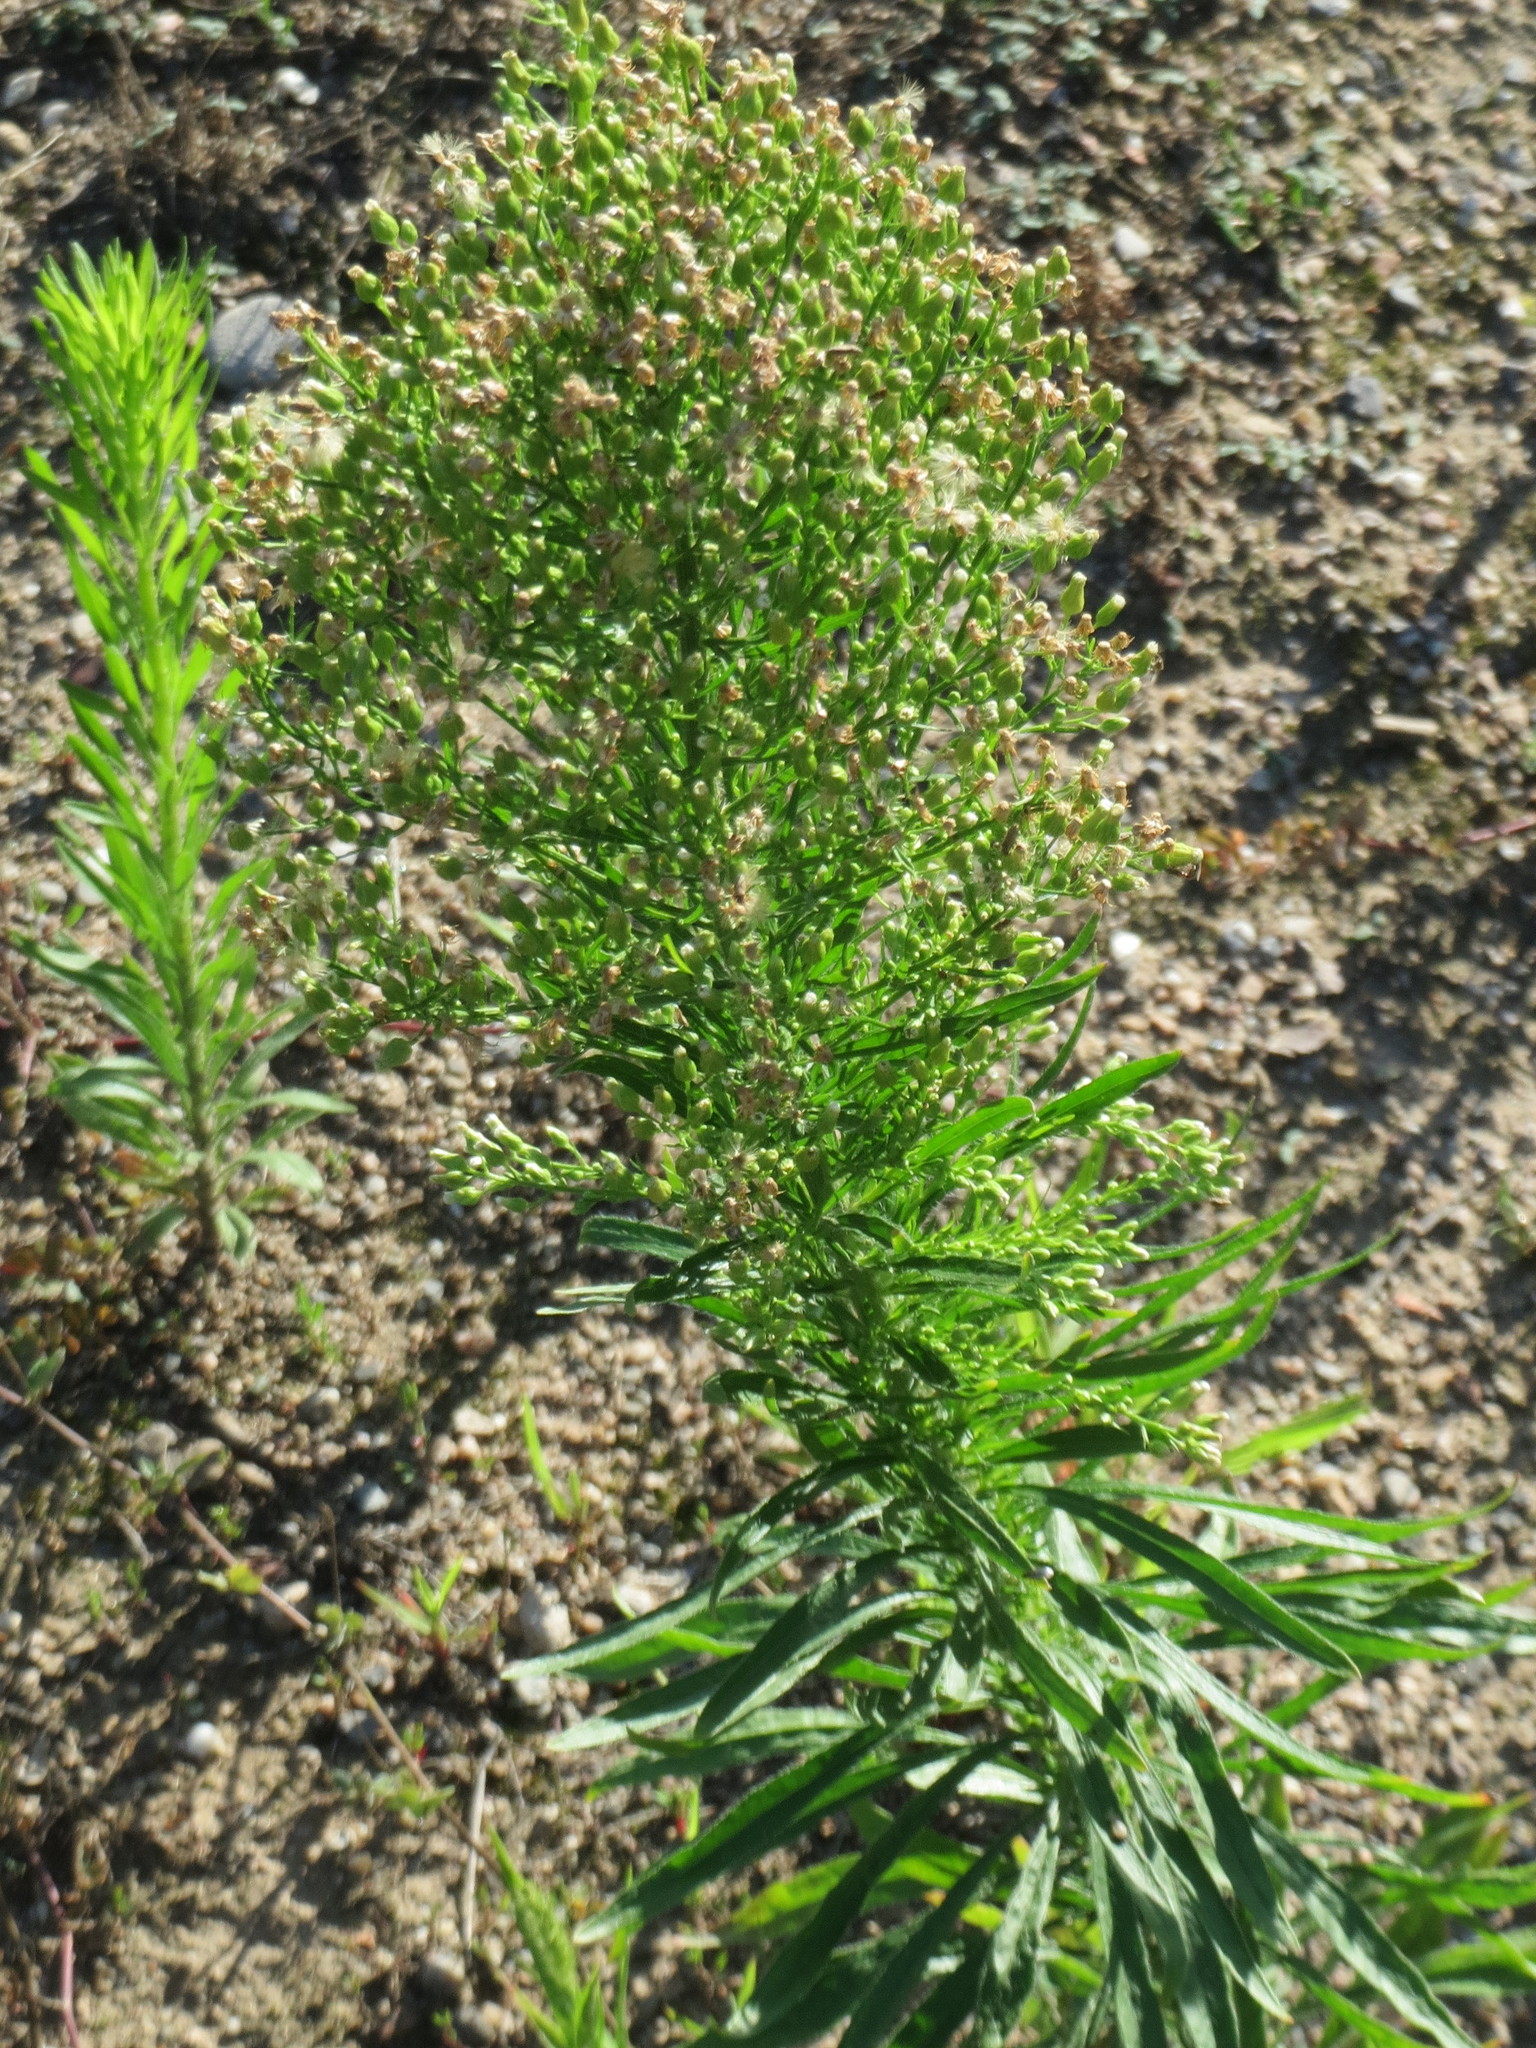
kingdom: Plantae
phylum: Tracheophyta
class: Magnoliopsida
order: Asterales
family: Asteraceae
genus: Erigeron
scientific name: Erigeron canadensis
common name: Canadian fleabane
